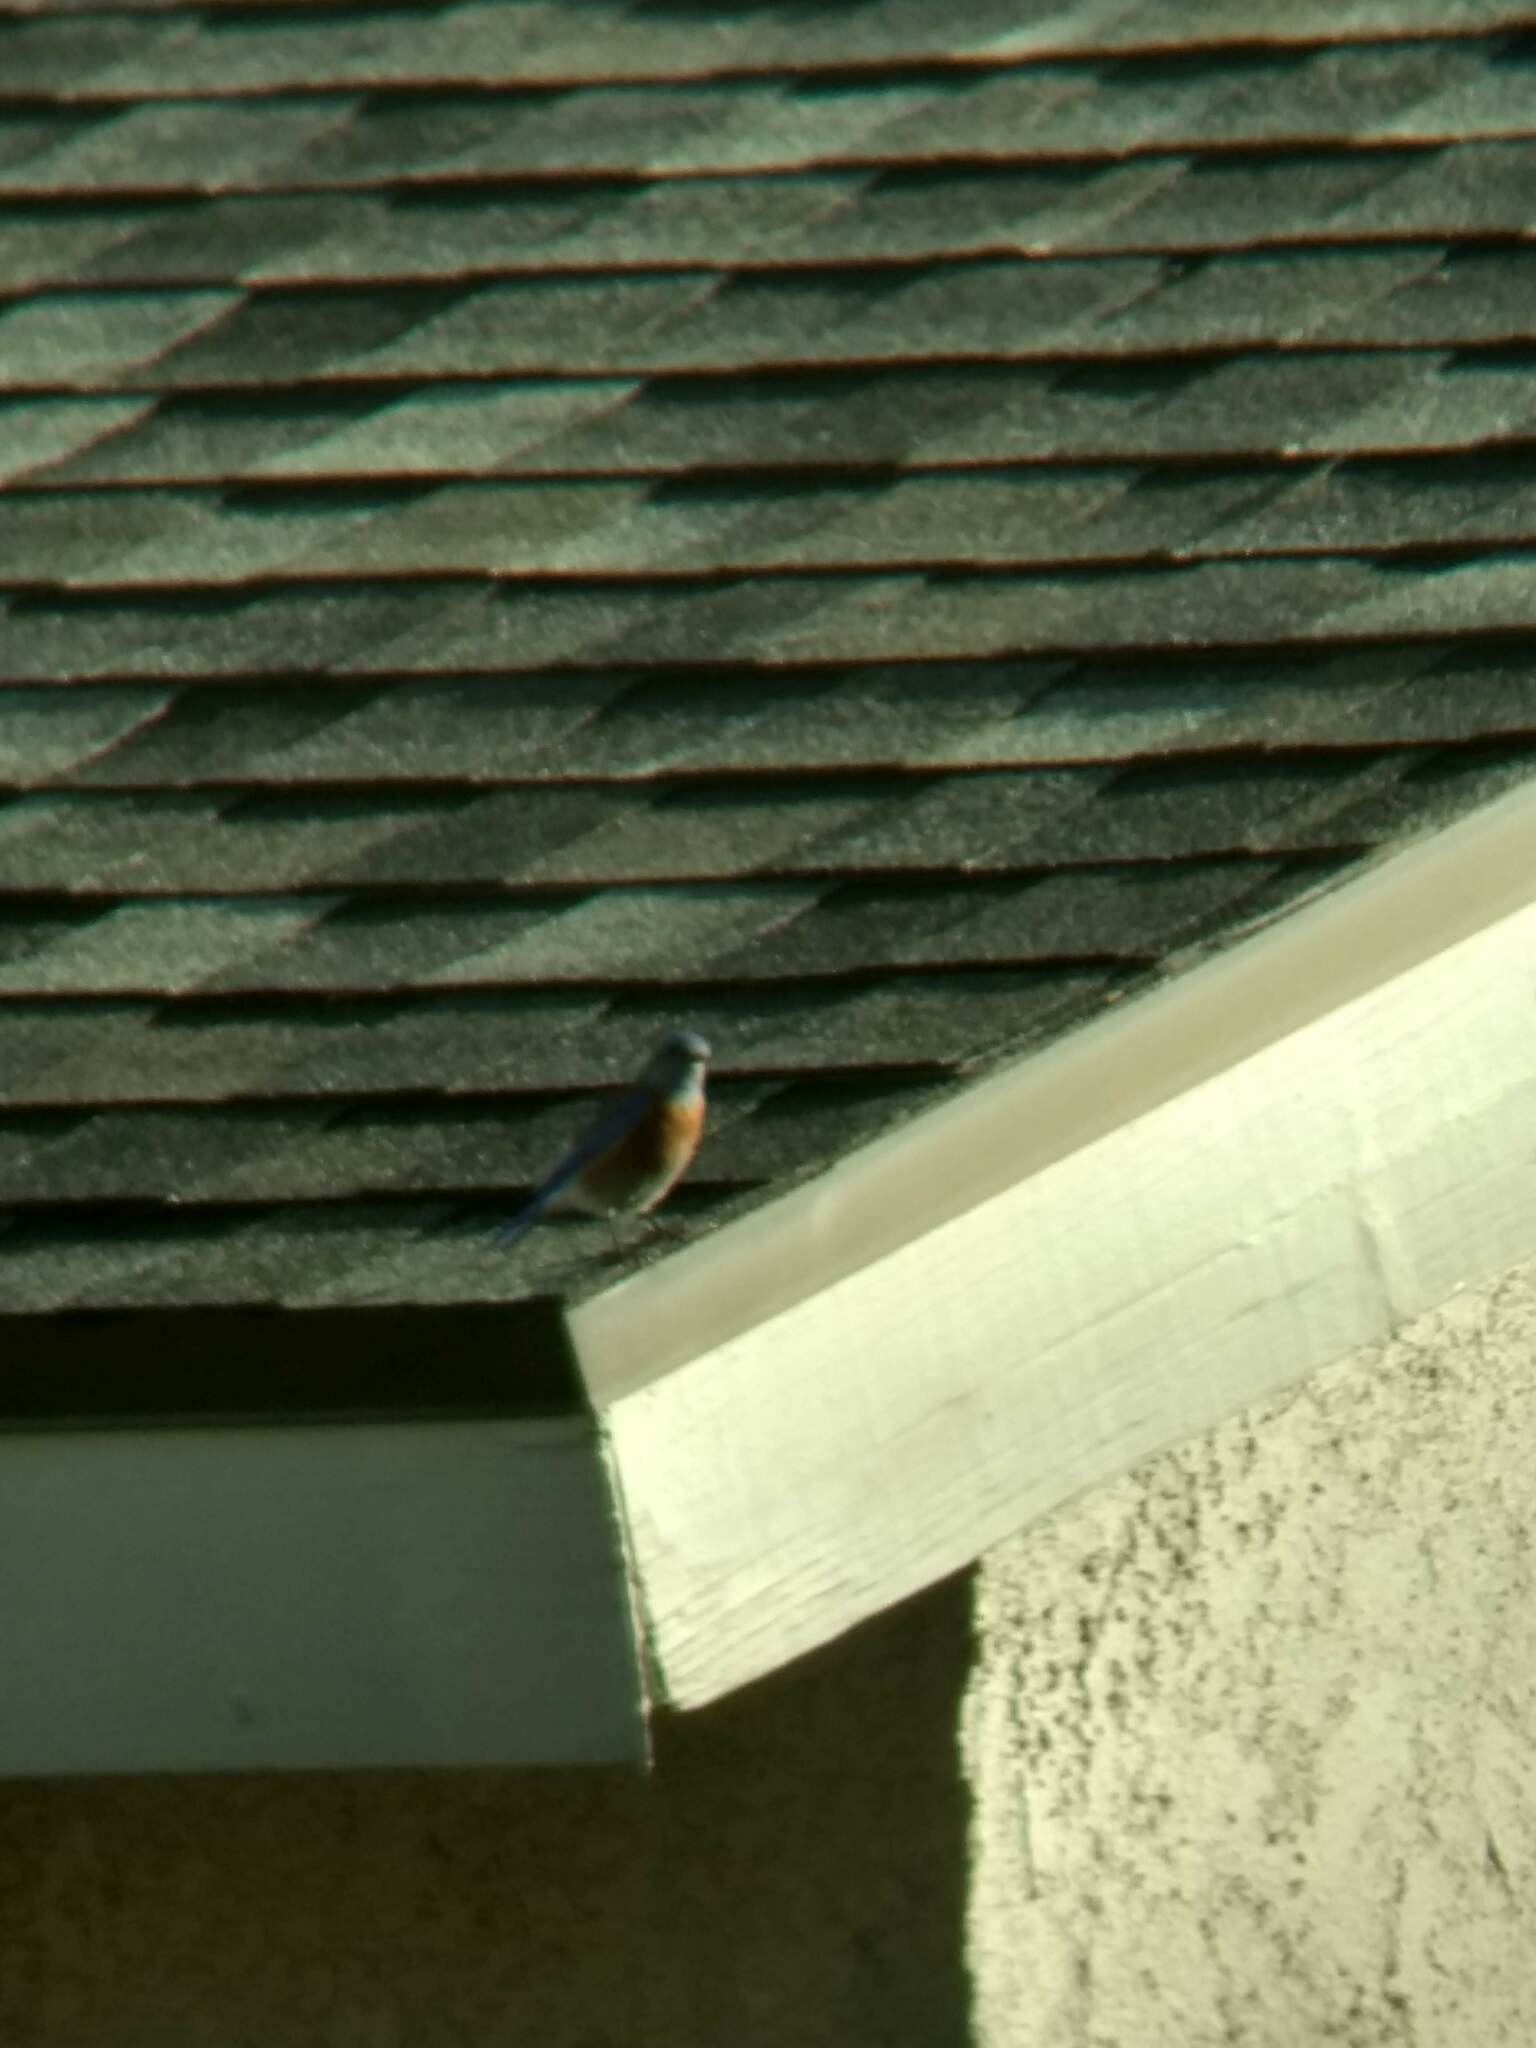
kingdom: Animalia
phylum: Chordata
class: Aves
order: Passeriformes
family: Turdidae
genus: Sialia
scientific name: Sialia mexicana
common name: Western bluebird
